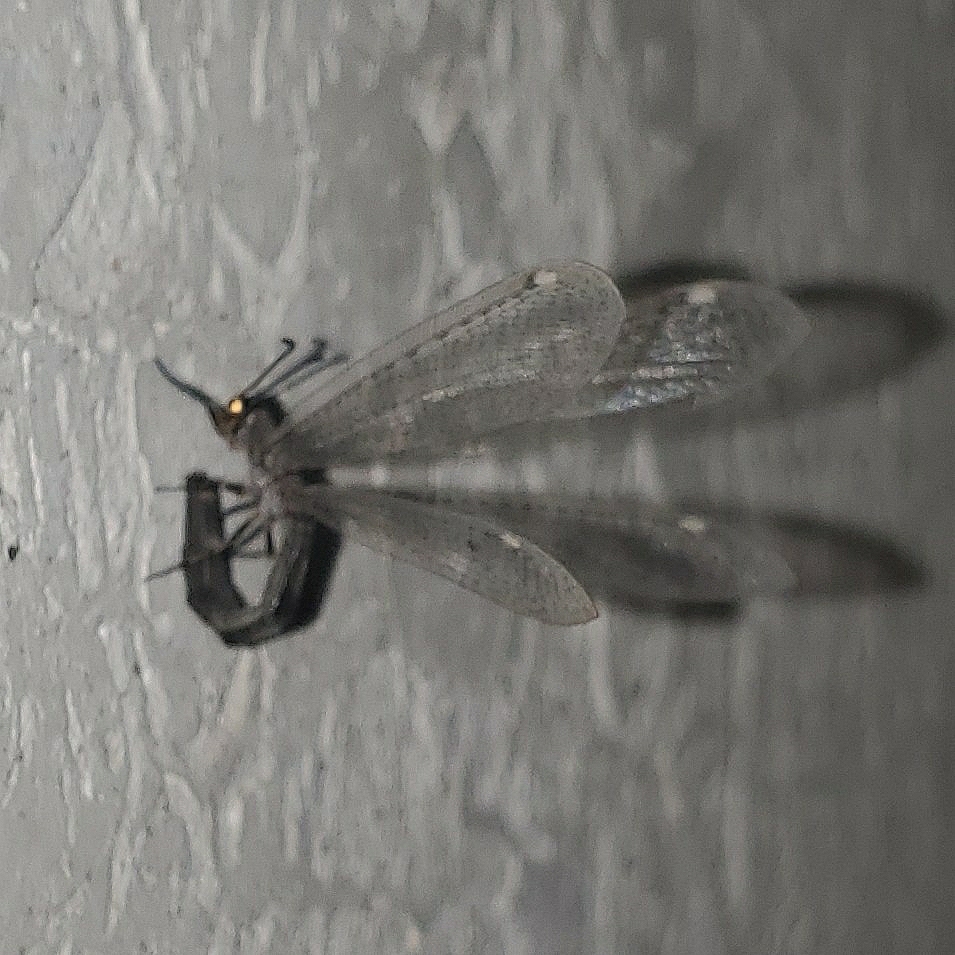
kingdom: Animalia
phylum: Arthropoda
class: Insecta
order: Neuroptera
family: Myrmeleontidae
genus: Myrmeleon
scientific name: Myrmeleon immaculatus
